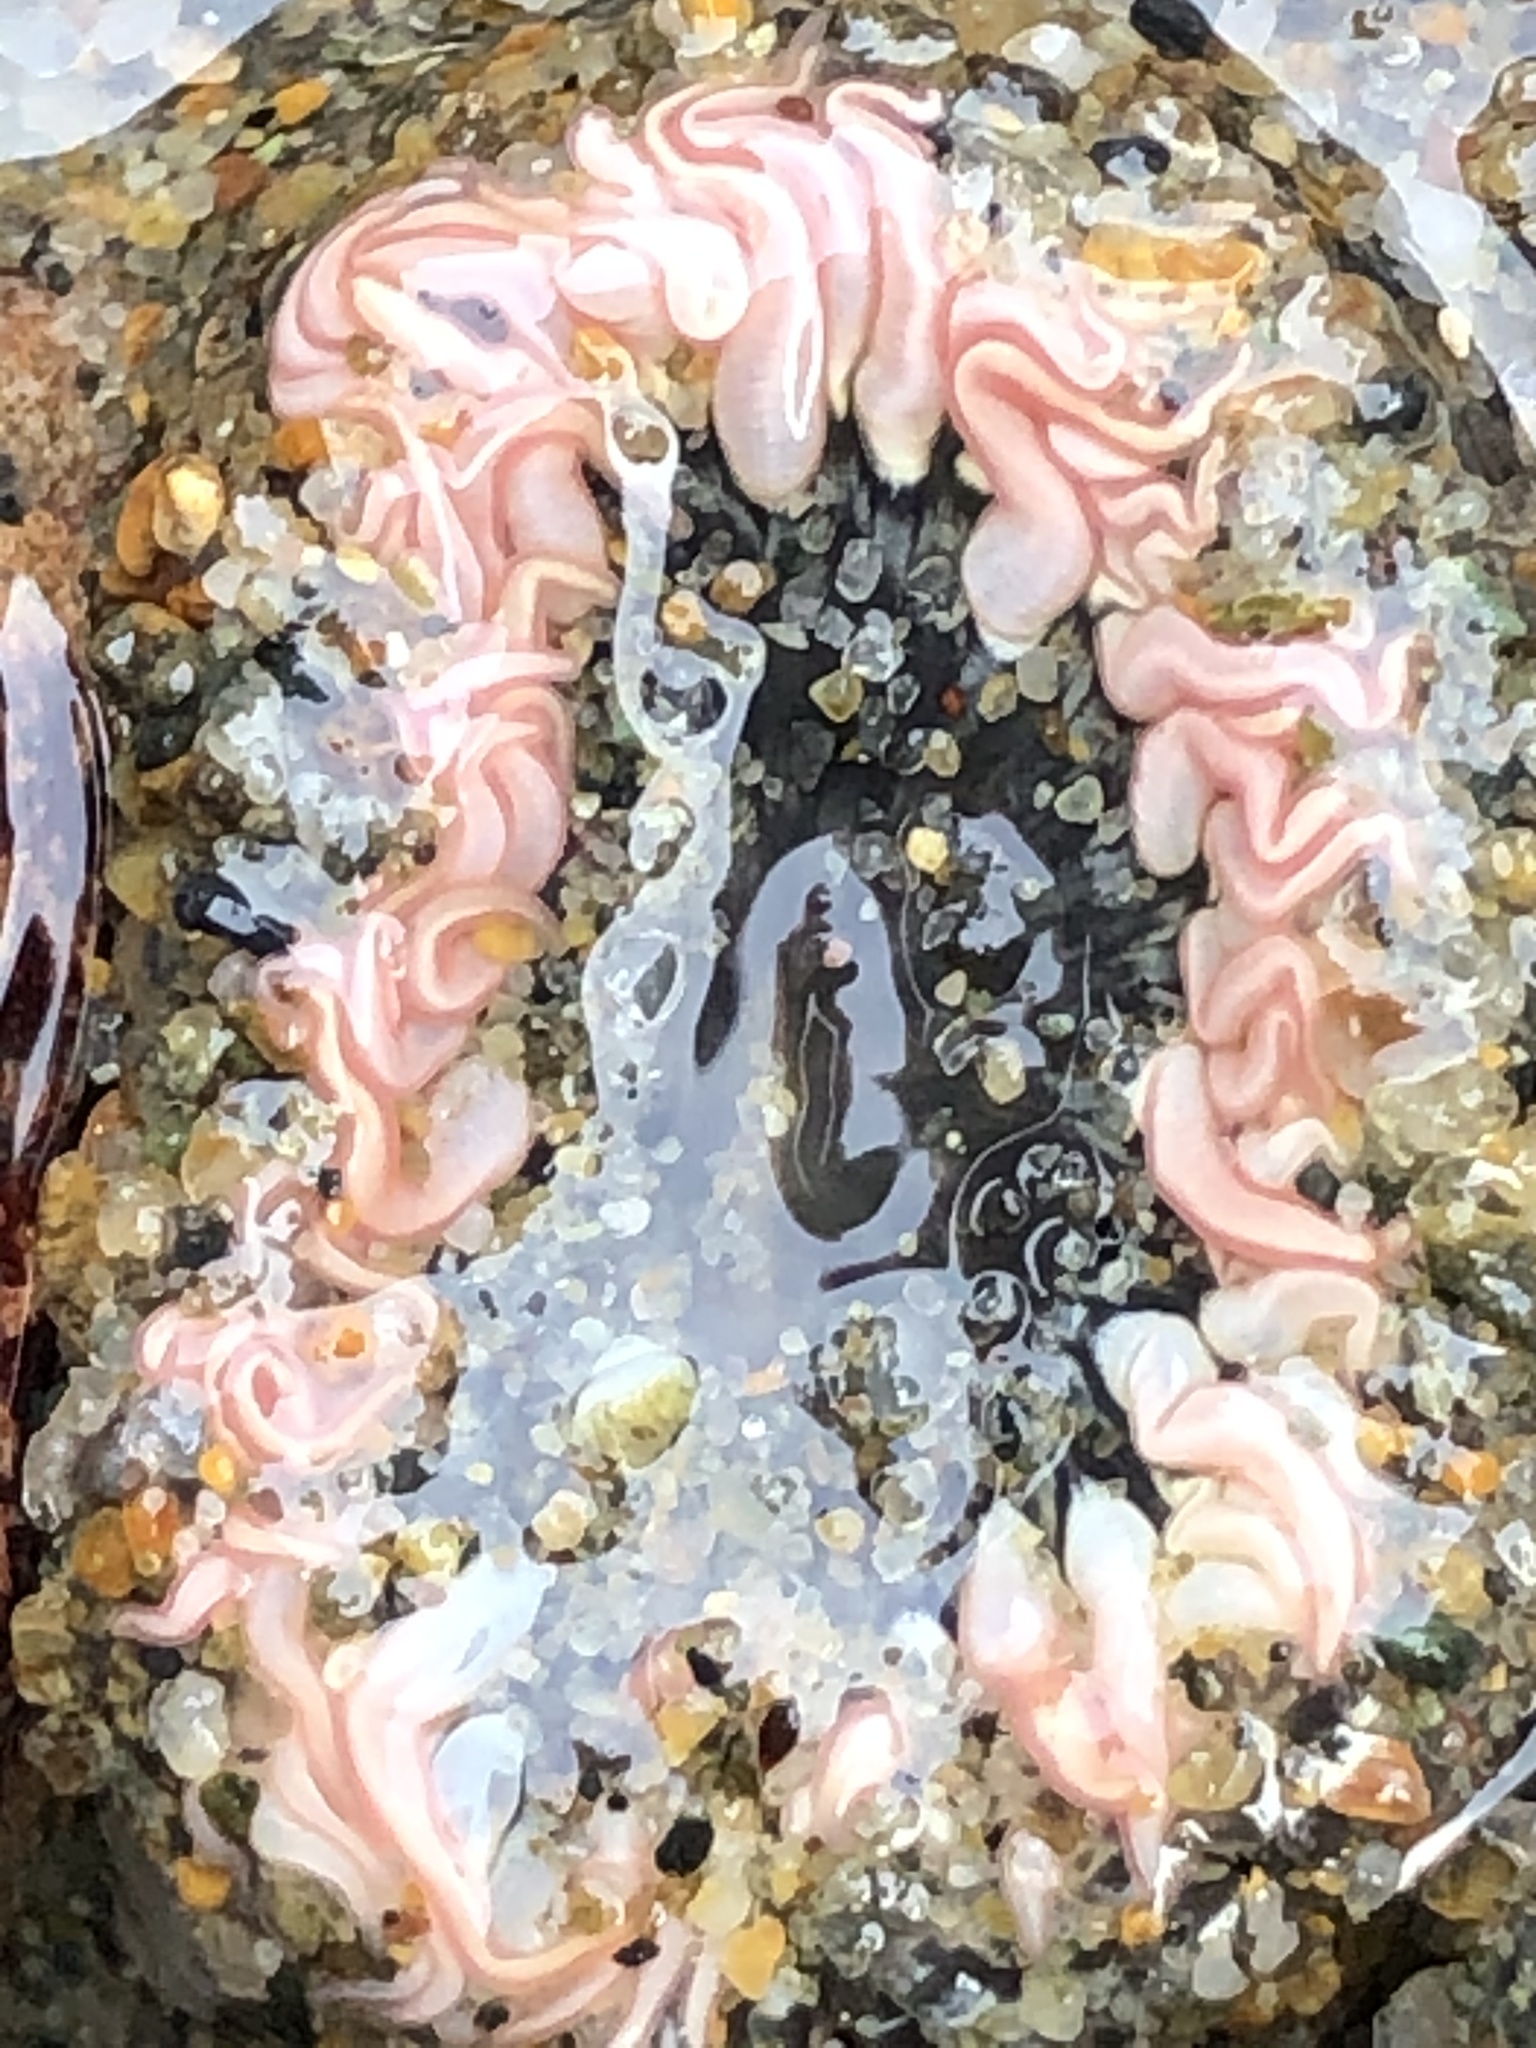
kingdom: Animalia
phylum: Cnidaria
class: Anthozoa
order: Actiniaria
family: Actiniidae
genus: Anthopleura
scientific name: Anthopleura artemisia
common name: Buried sea anemone
